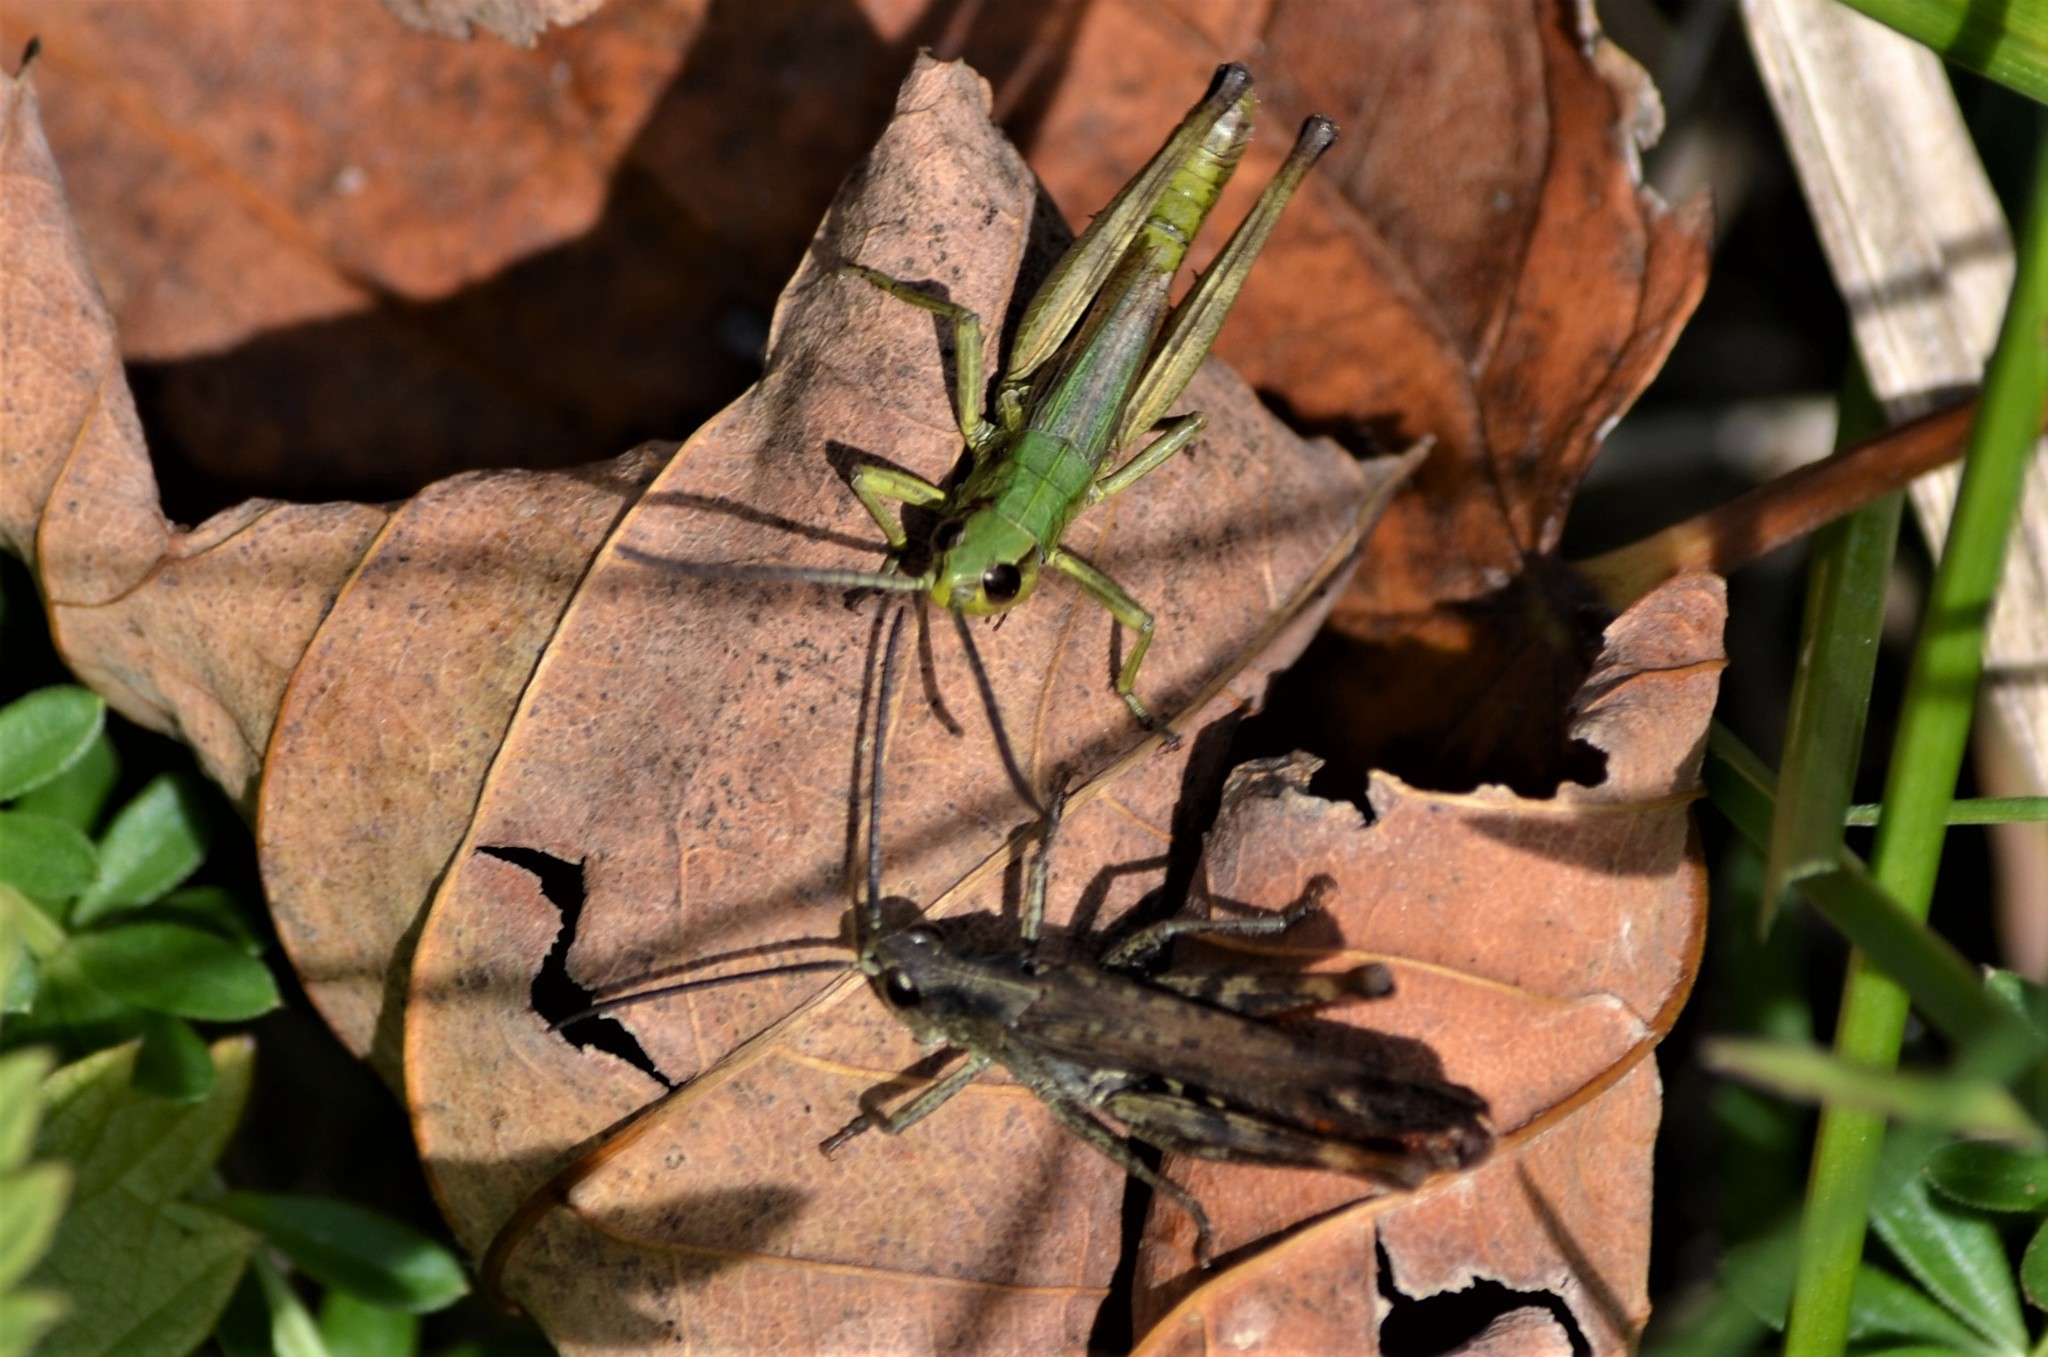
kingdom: Animalia
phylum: Arthropoda
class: Insecta
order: Orthoptera
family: Acrididae
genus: Pseudochorthippus
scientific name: Pseudochorthippus parallelus
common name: Meadow grasshopper
